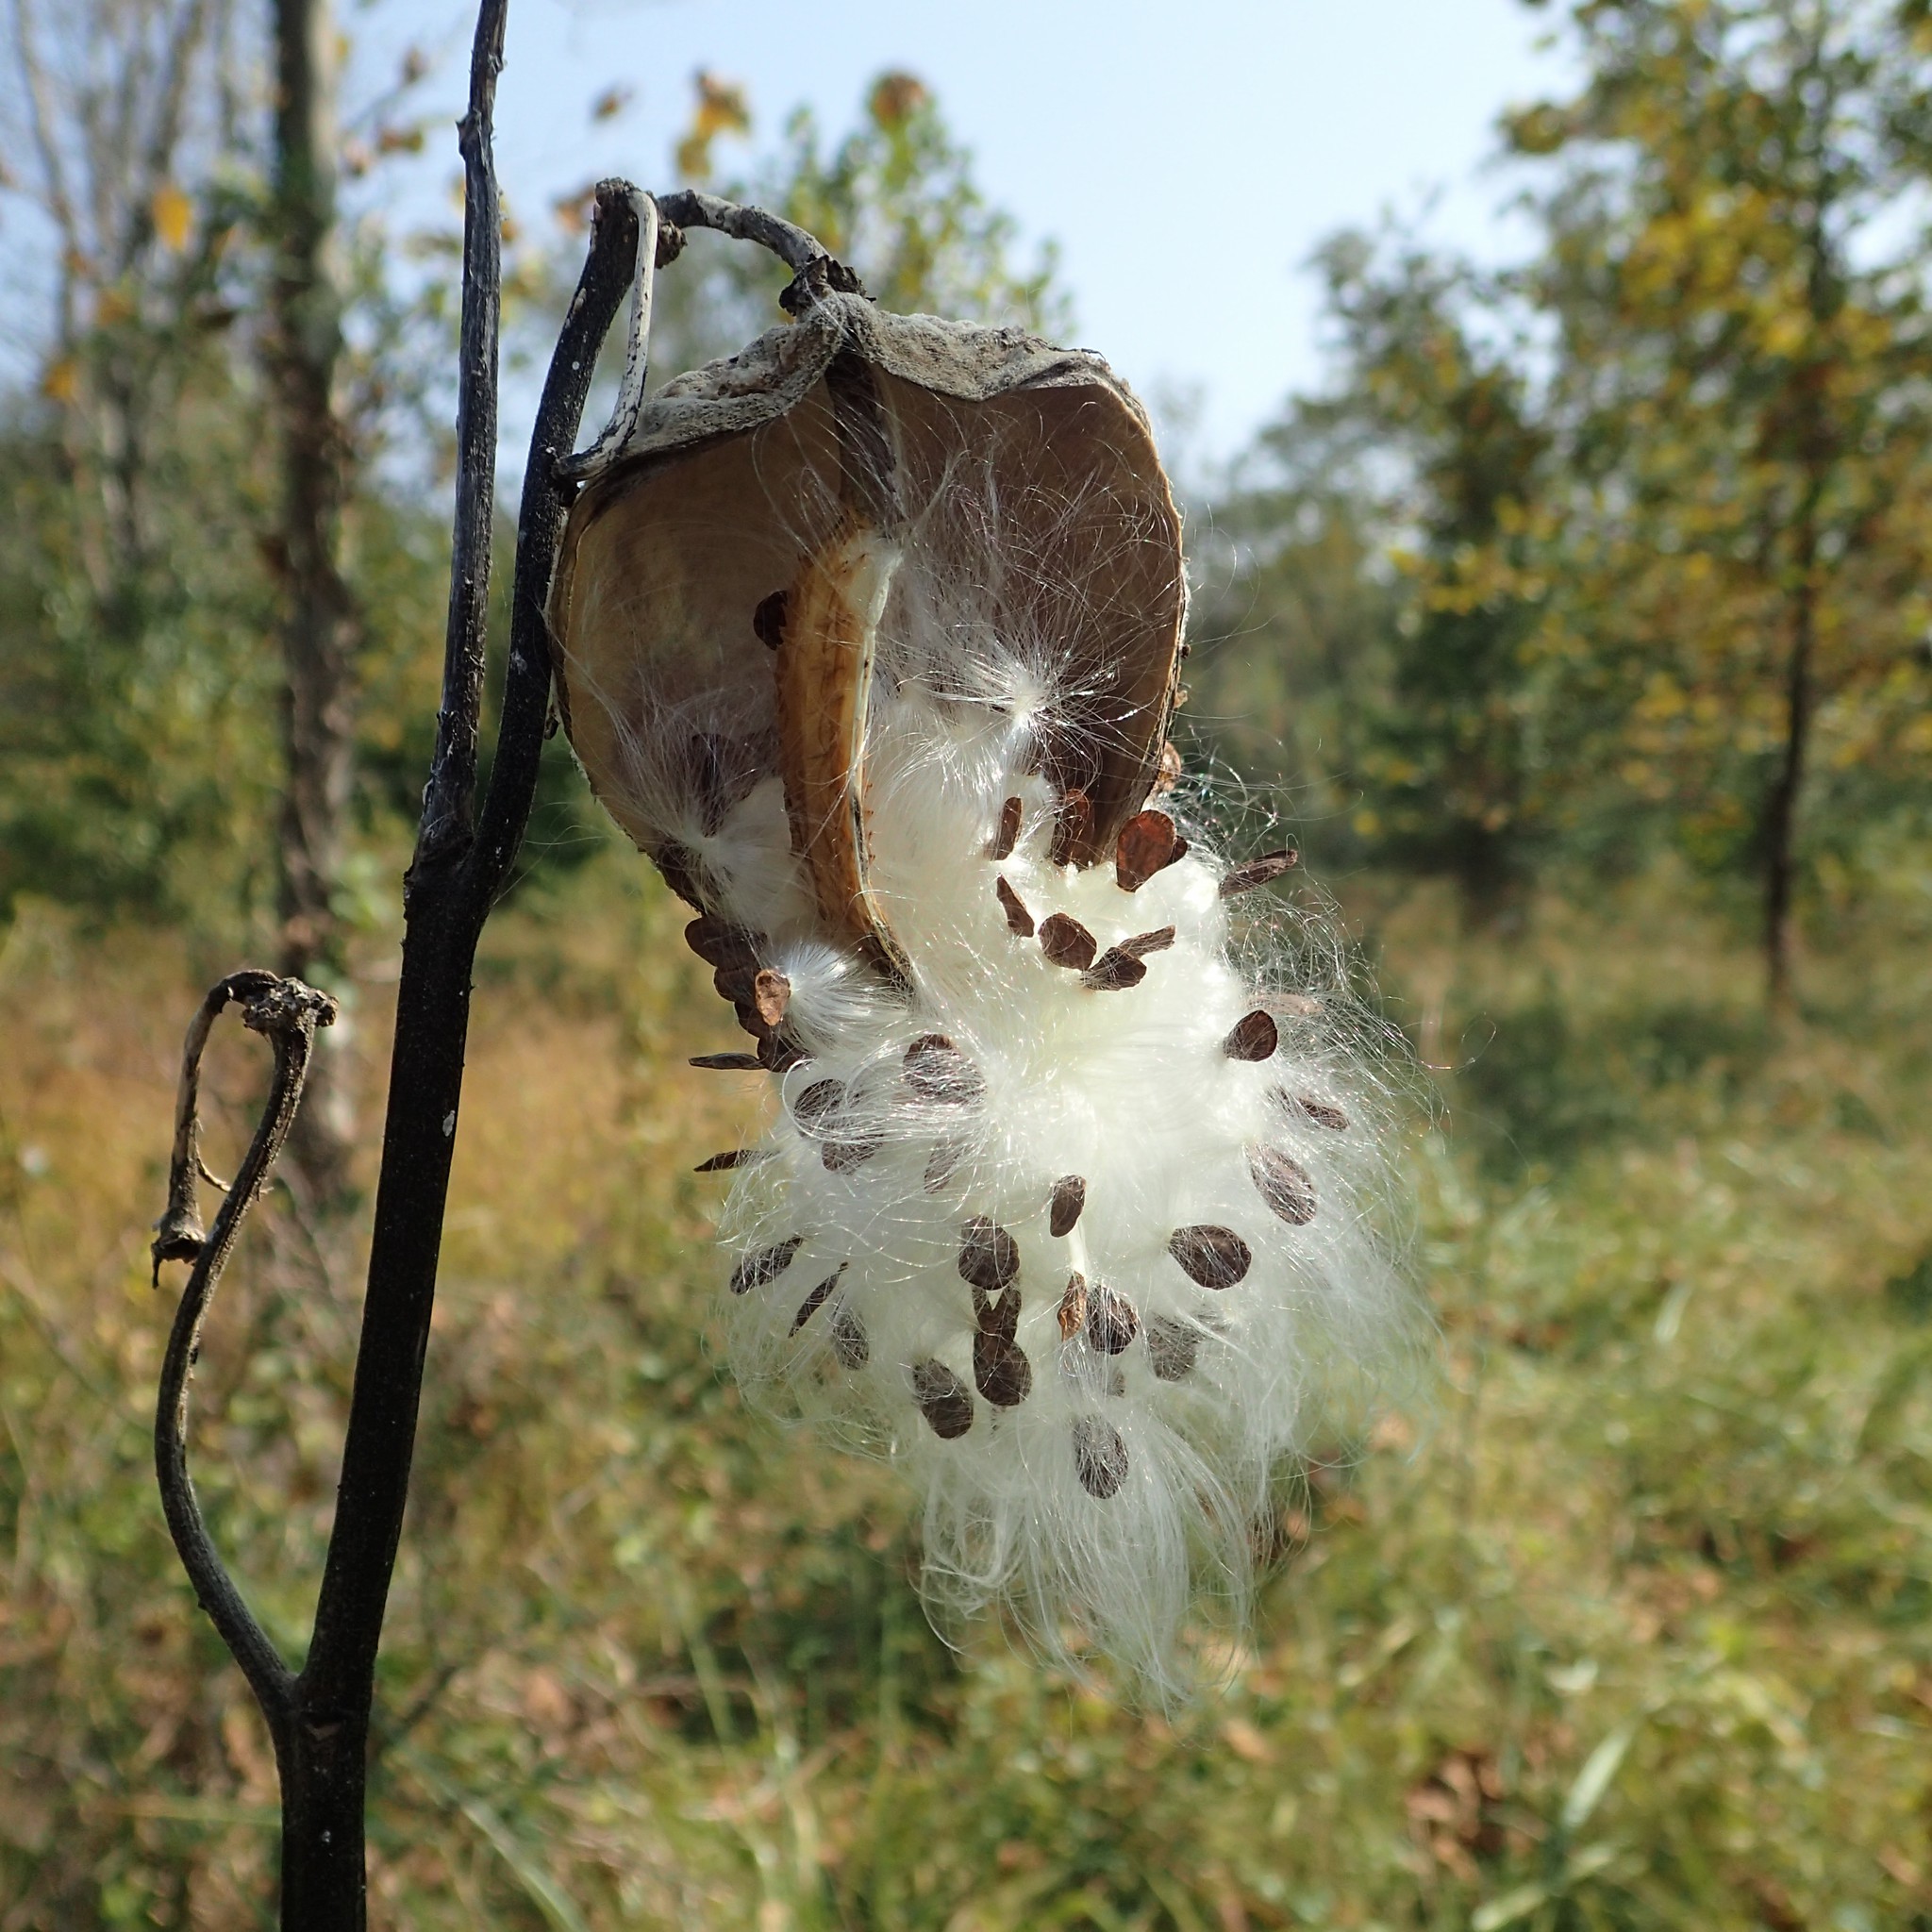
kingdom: Plantae
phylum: Tracheophyta
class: Magnoliopsida
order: Gentianales
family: Apocynaceae
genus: Asclepias
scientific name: Asclepias syriaca
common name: Common milkweed
